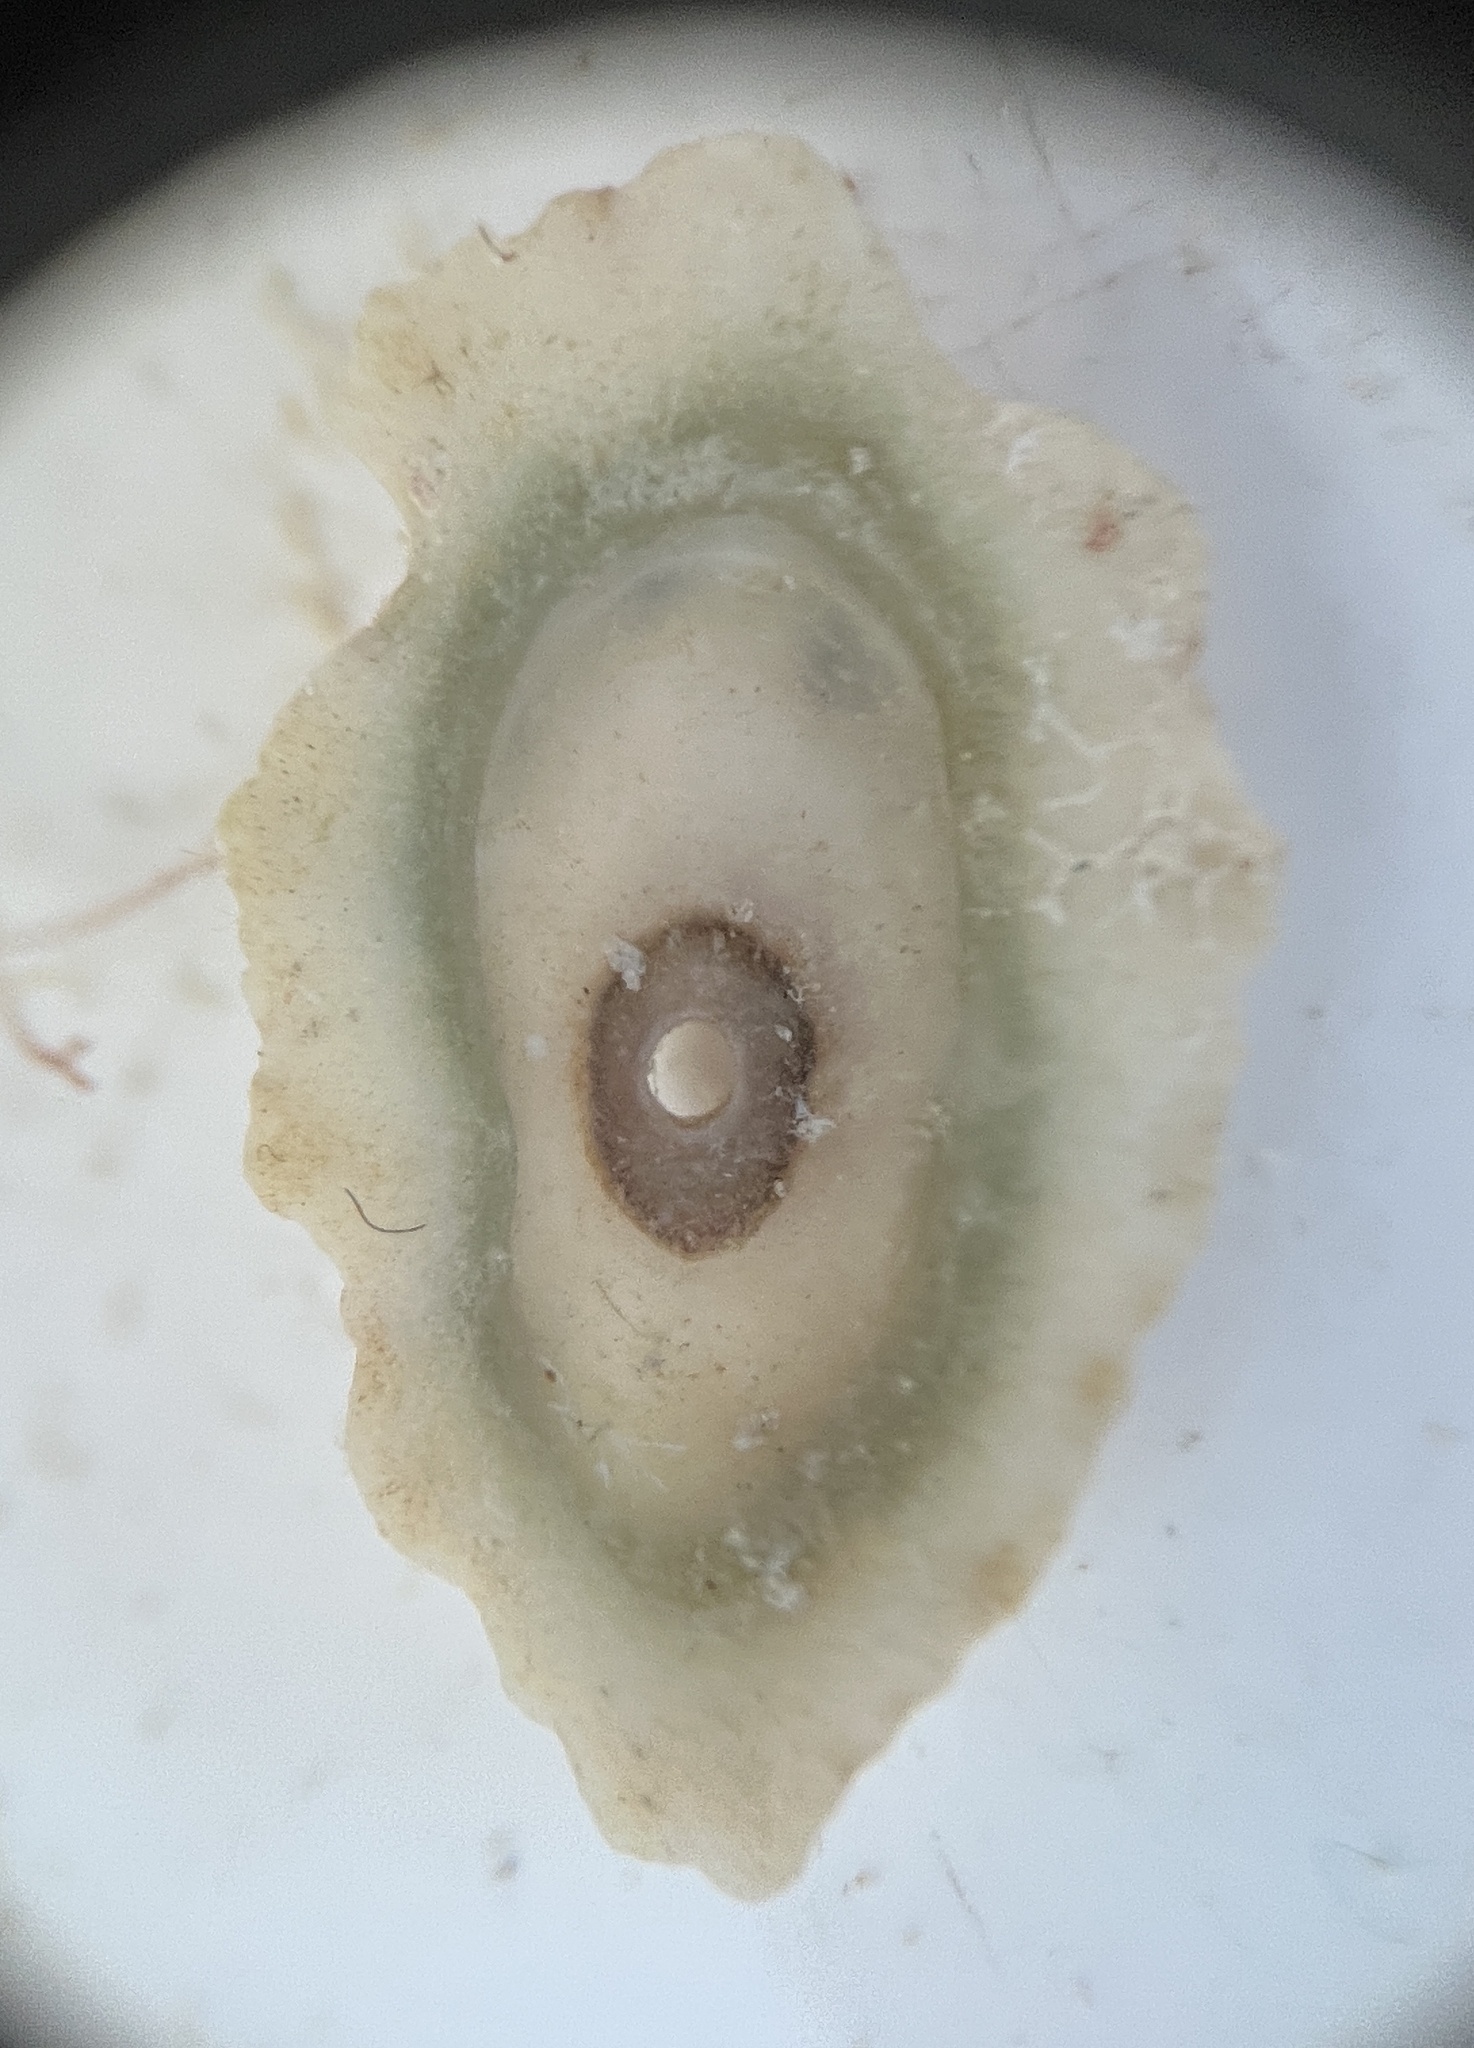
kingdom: Animalia
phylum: Mollusca
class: Gastropoda
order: Lepetellida
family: Fissurellidae
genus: Fissurella
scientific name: Fissurella barbadensis
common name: Barbados keyhole limpet
